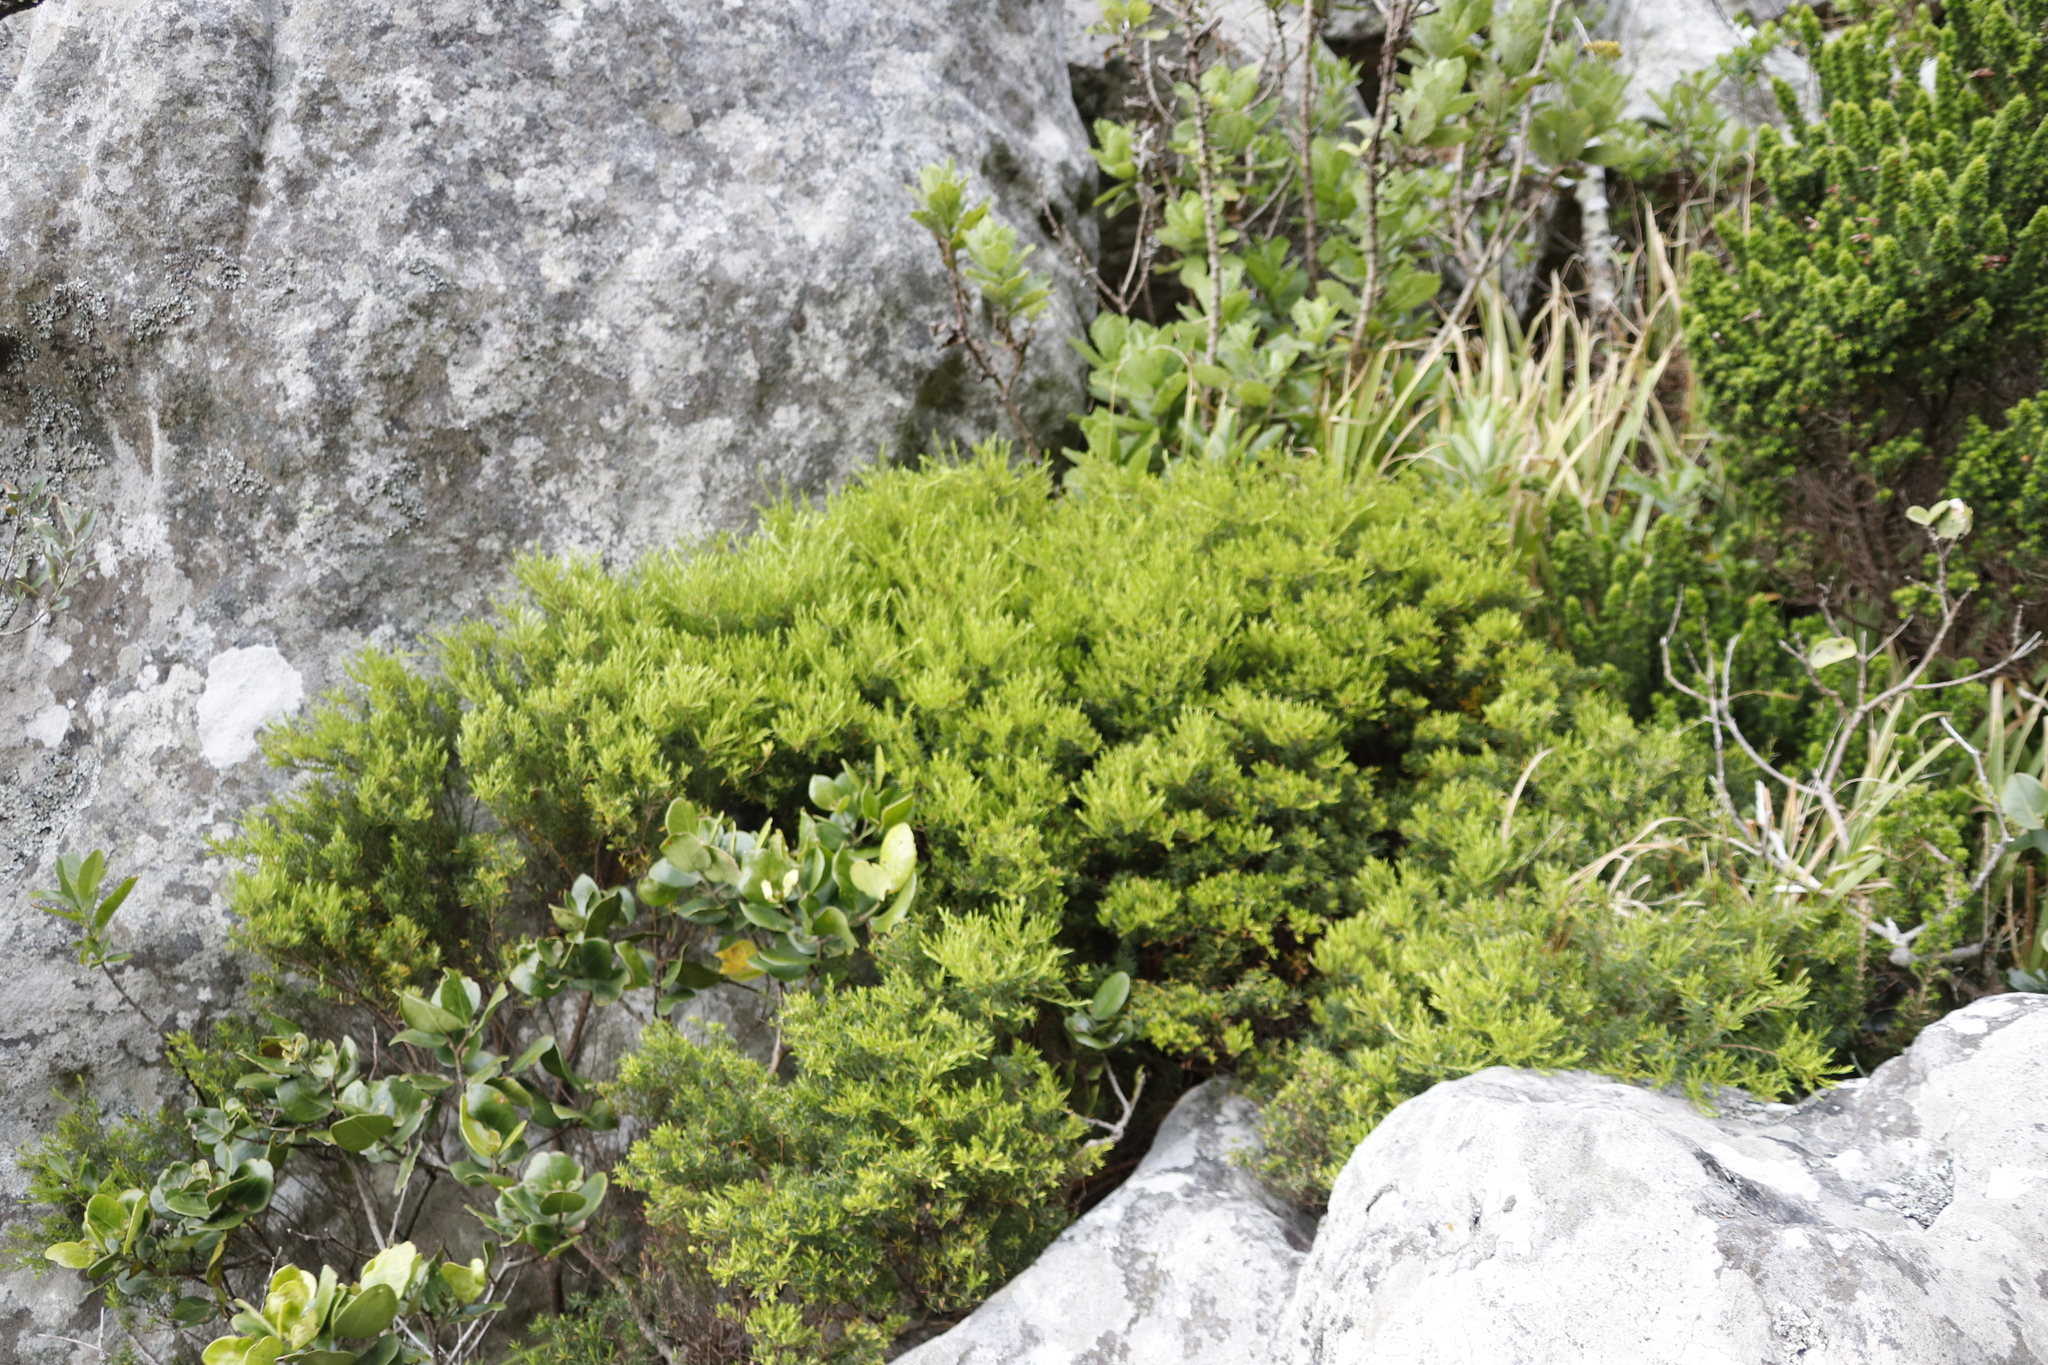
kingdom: Plantae
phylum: Tracheophyta
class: Magnoliopsida
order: Sapindales
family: Rutaceae
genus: Coleonema
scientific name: Coleonema album
